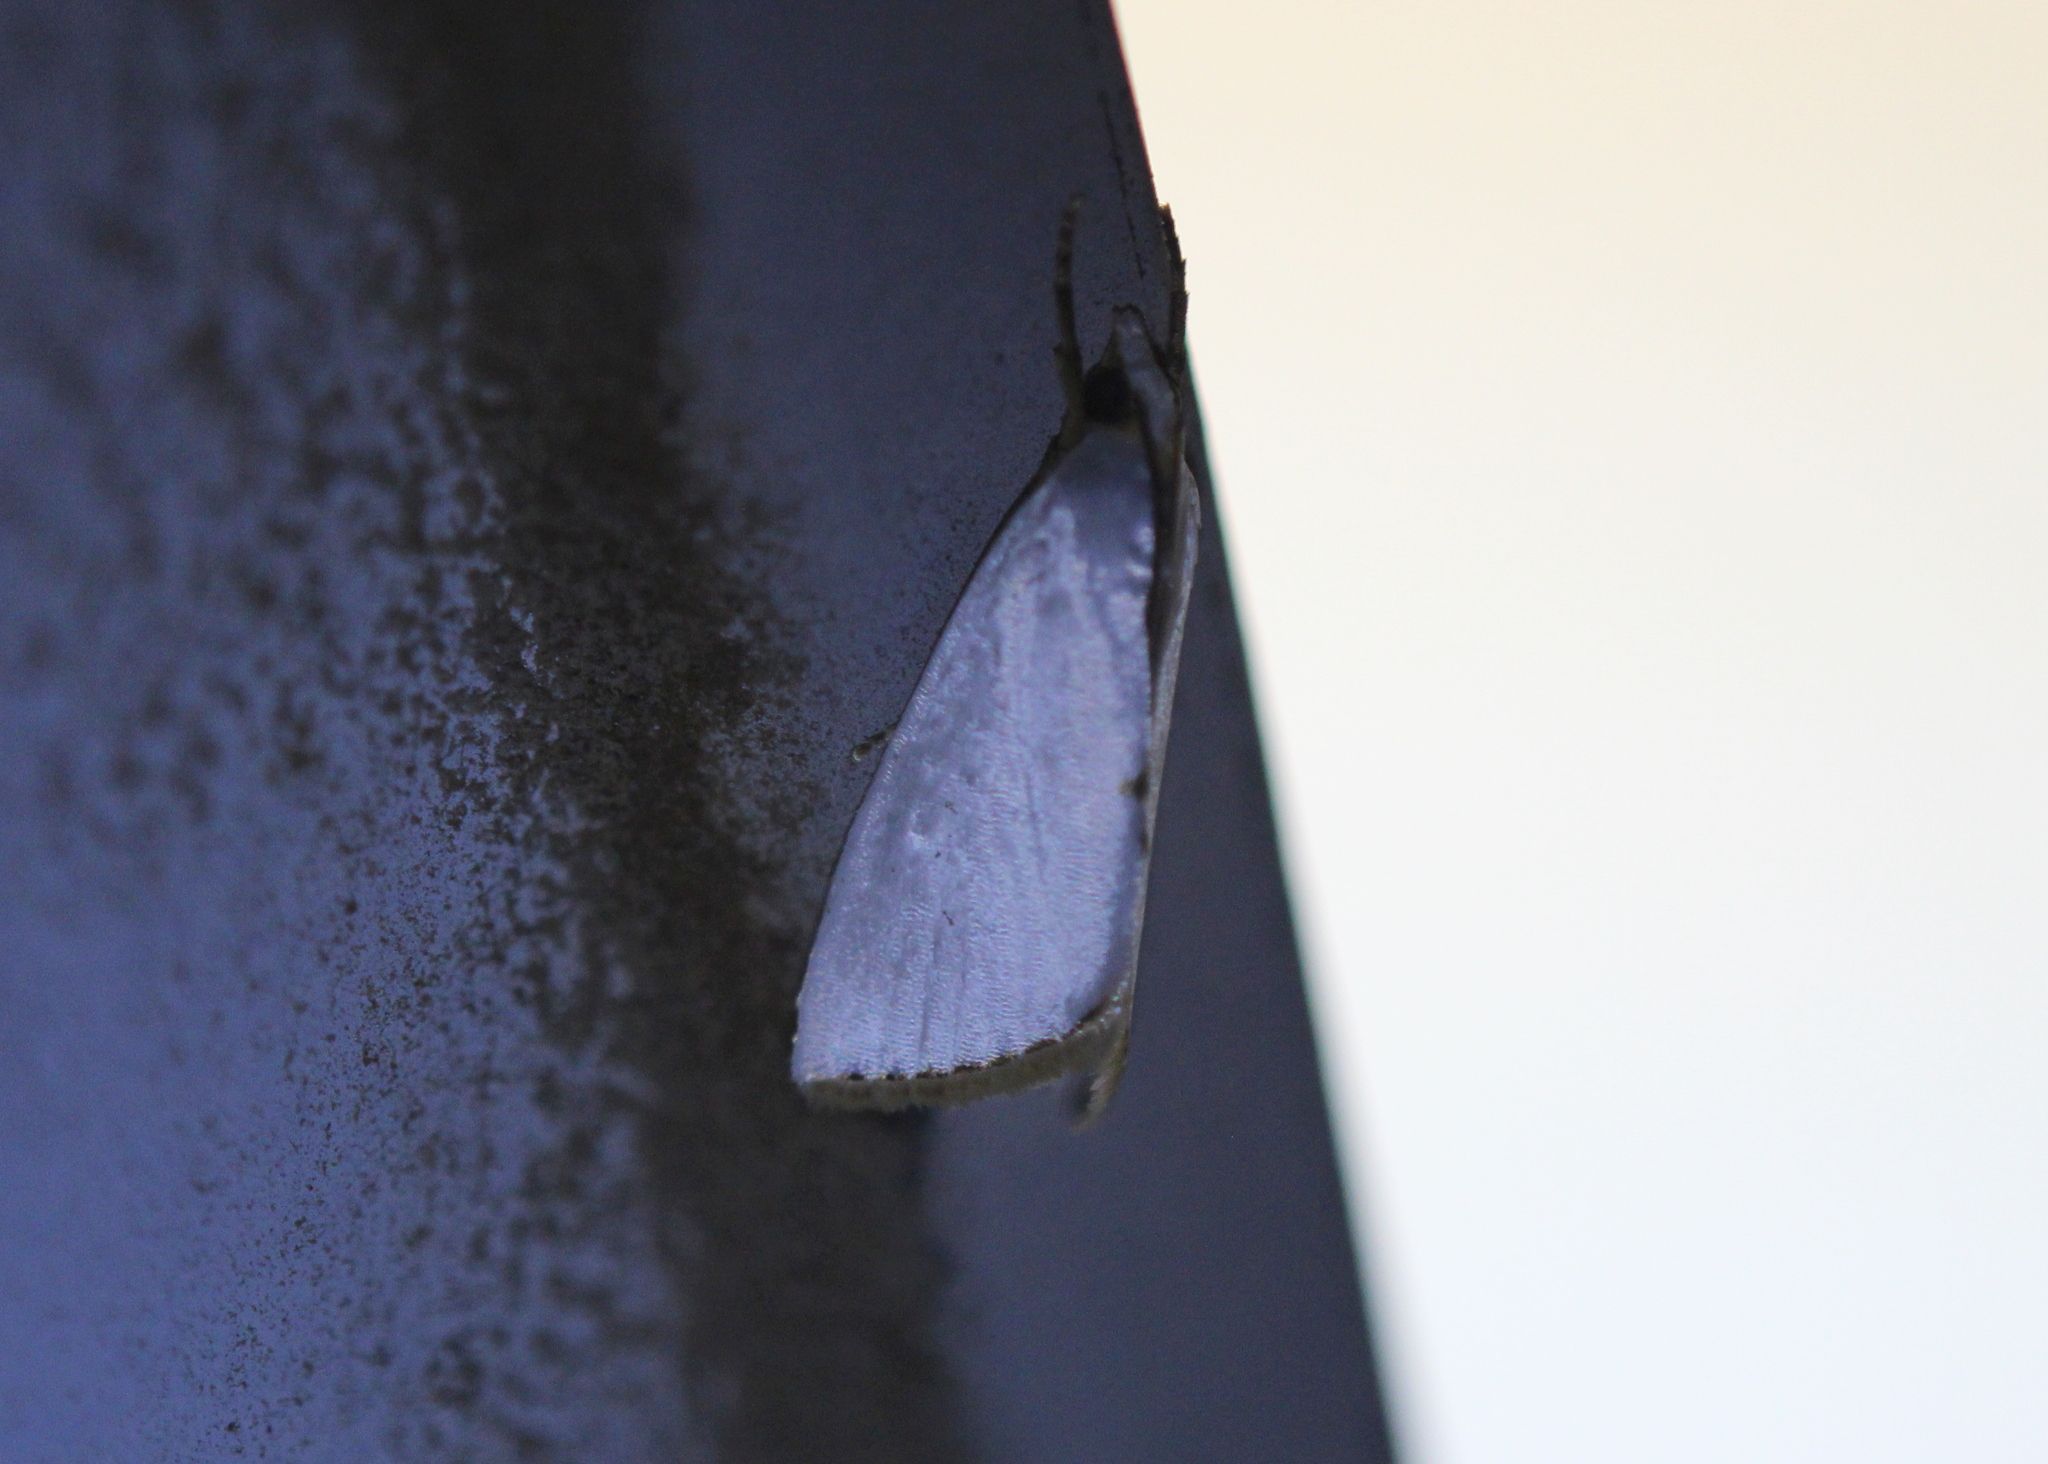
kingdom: Animalia
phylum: Arthropoda
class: Insecta
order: Lepidoptera
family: Crambidae
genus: Argyria
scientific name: Argyria nivalis
